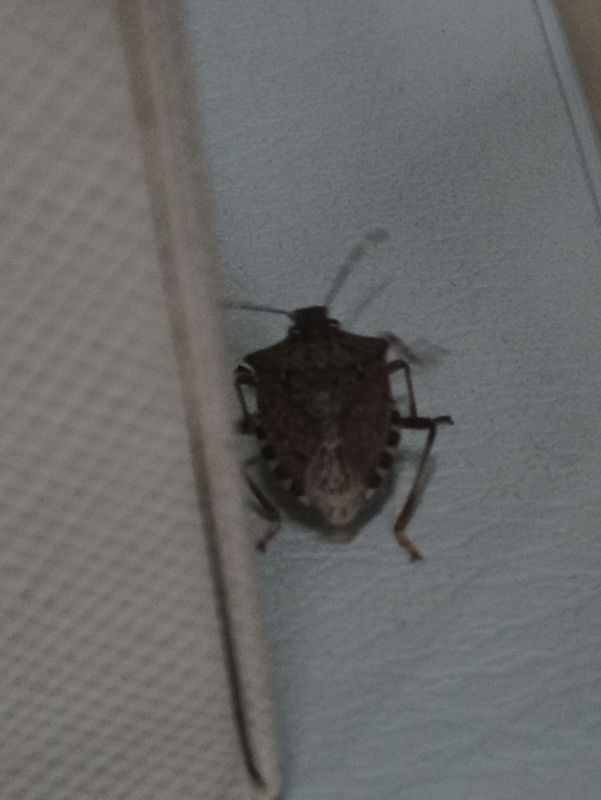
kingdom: Animalia
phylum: Arthropoda
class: Insecta
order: Hemiptera
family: Pentatomidae
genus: Halyomorpha
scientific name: Halyomorpha halys
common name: Brown marmorated stink bug
